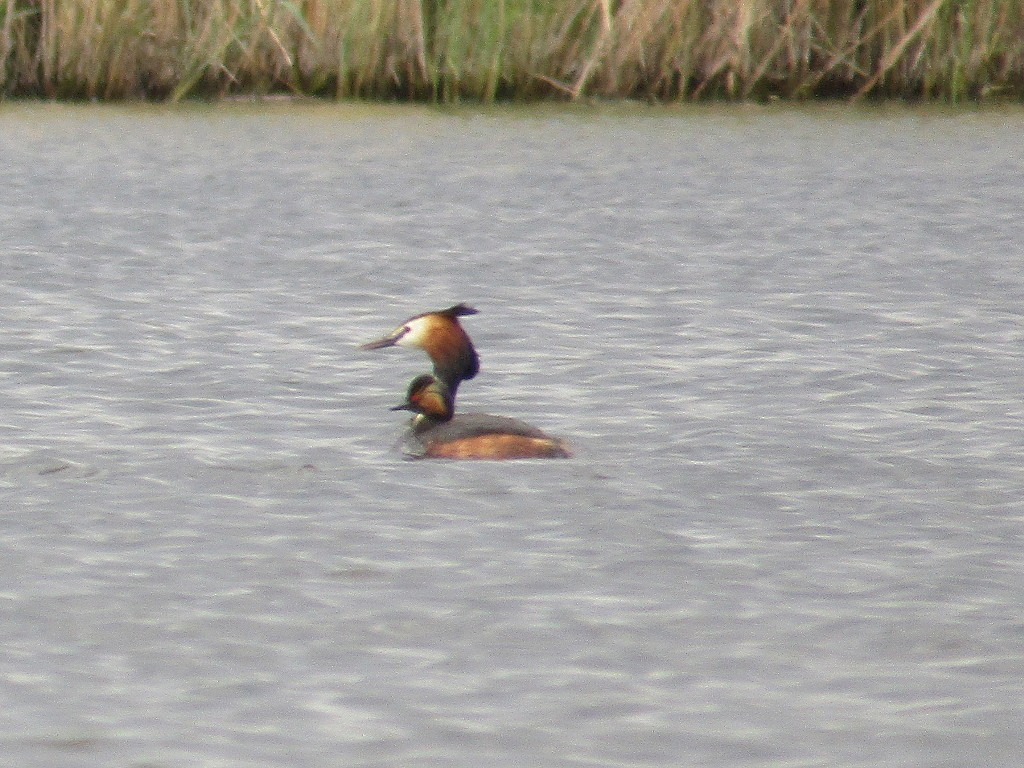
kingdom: Animalia
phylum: Chordata
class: Aves
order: Podicipediformes
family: Podicipedidae
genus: Podiceps
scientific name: Podiceps cristatus
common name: Great crested grebe
